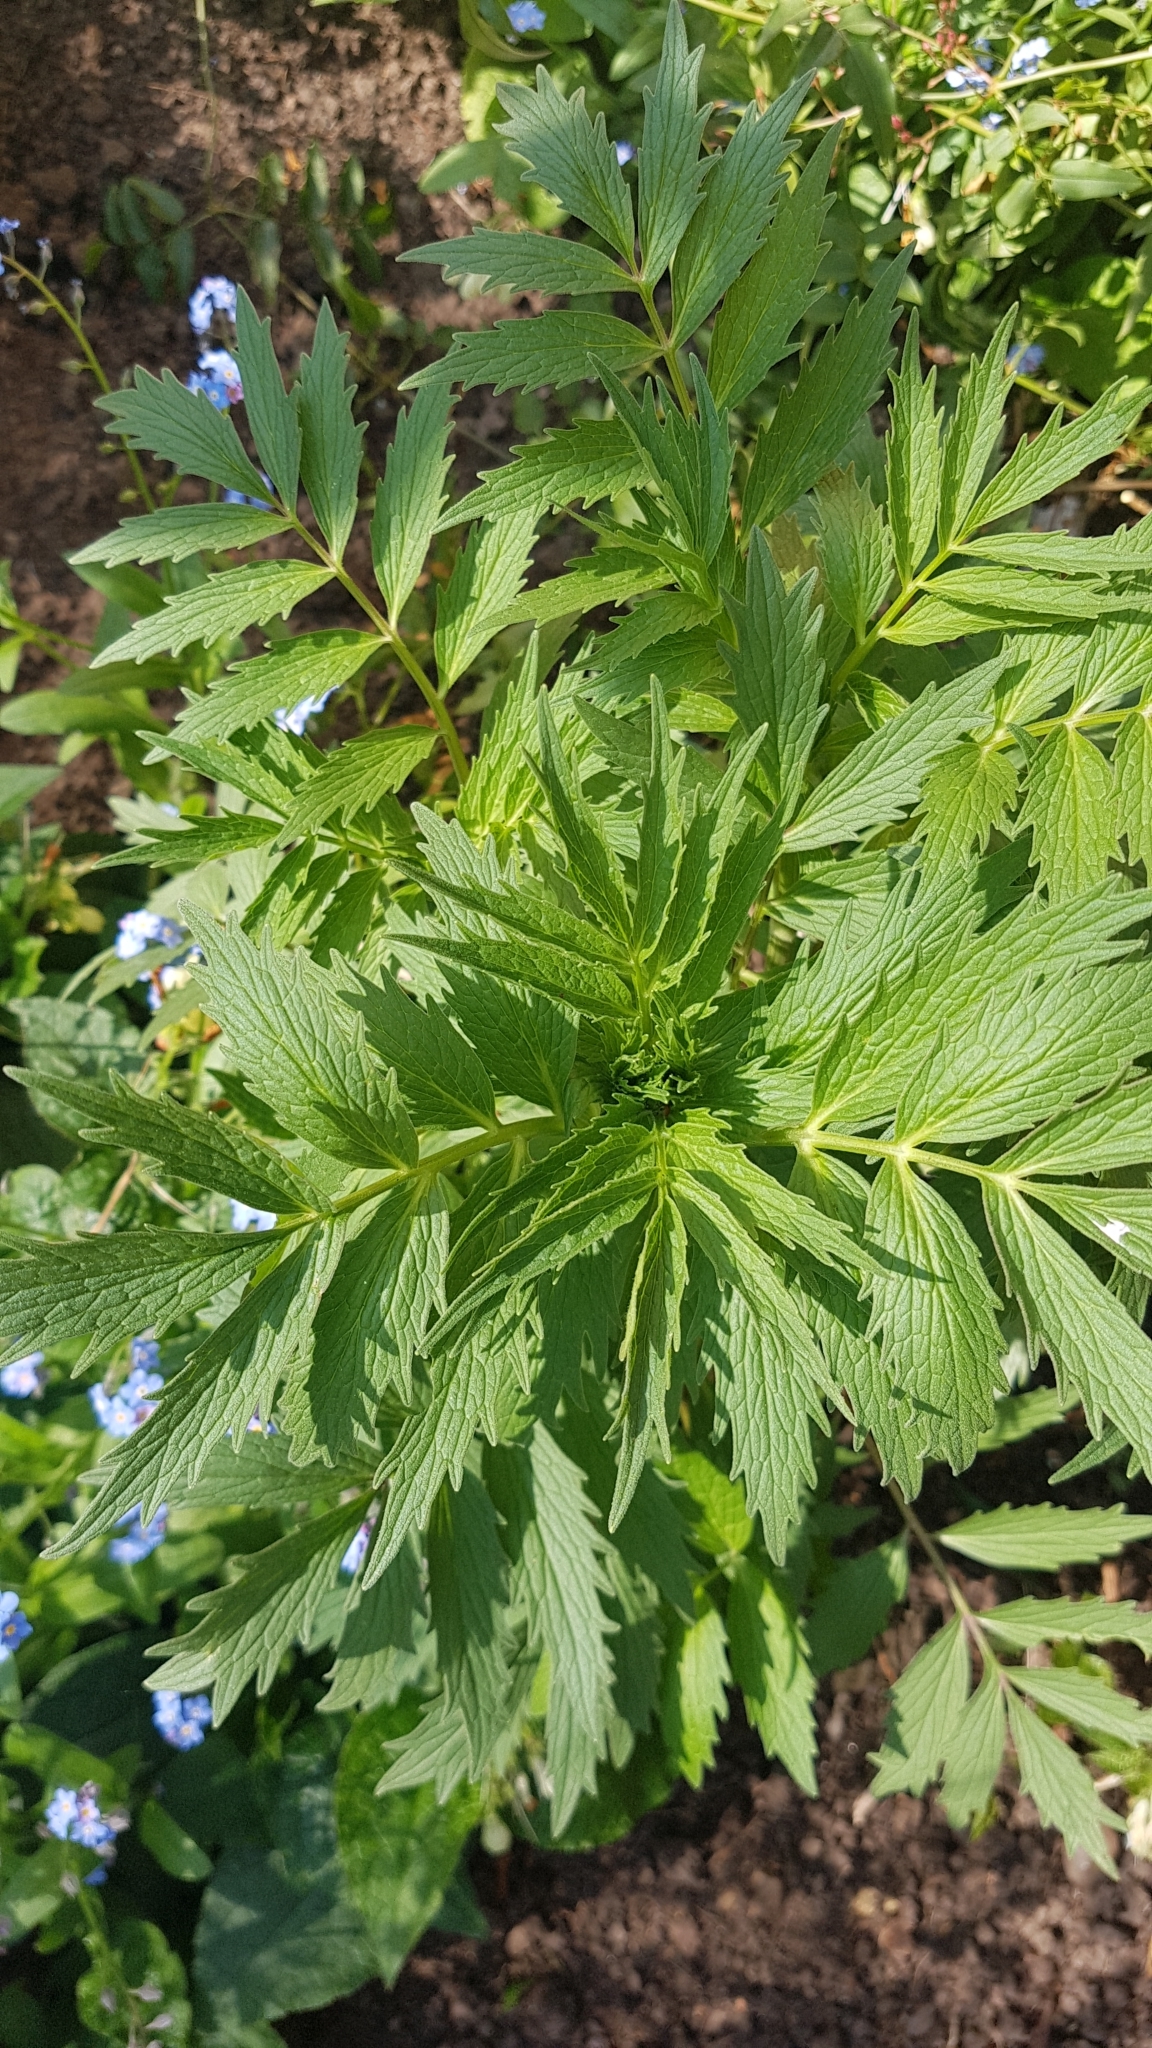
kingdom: Plantae
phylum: Tracheophyta
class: Magnoliopsida
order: Rosales
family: Rosaceae
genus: Filipendula
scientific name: Filipendula ulmaria
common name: Meadowsweet
